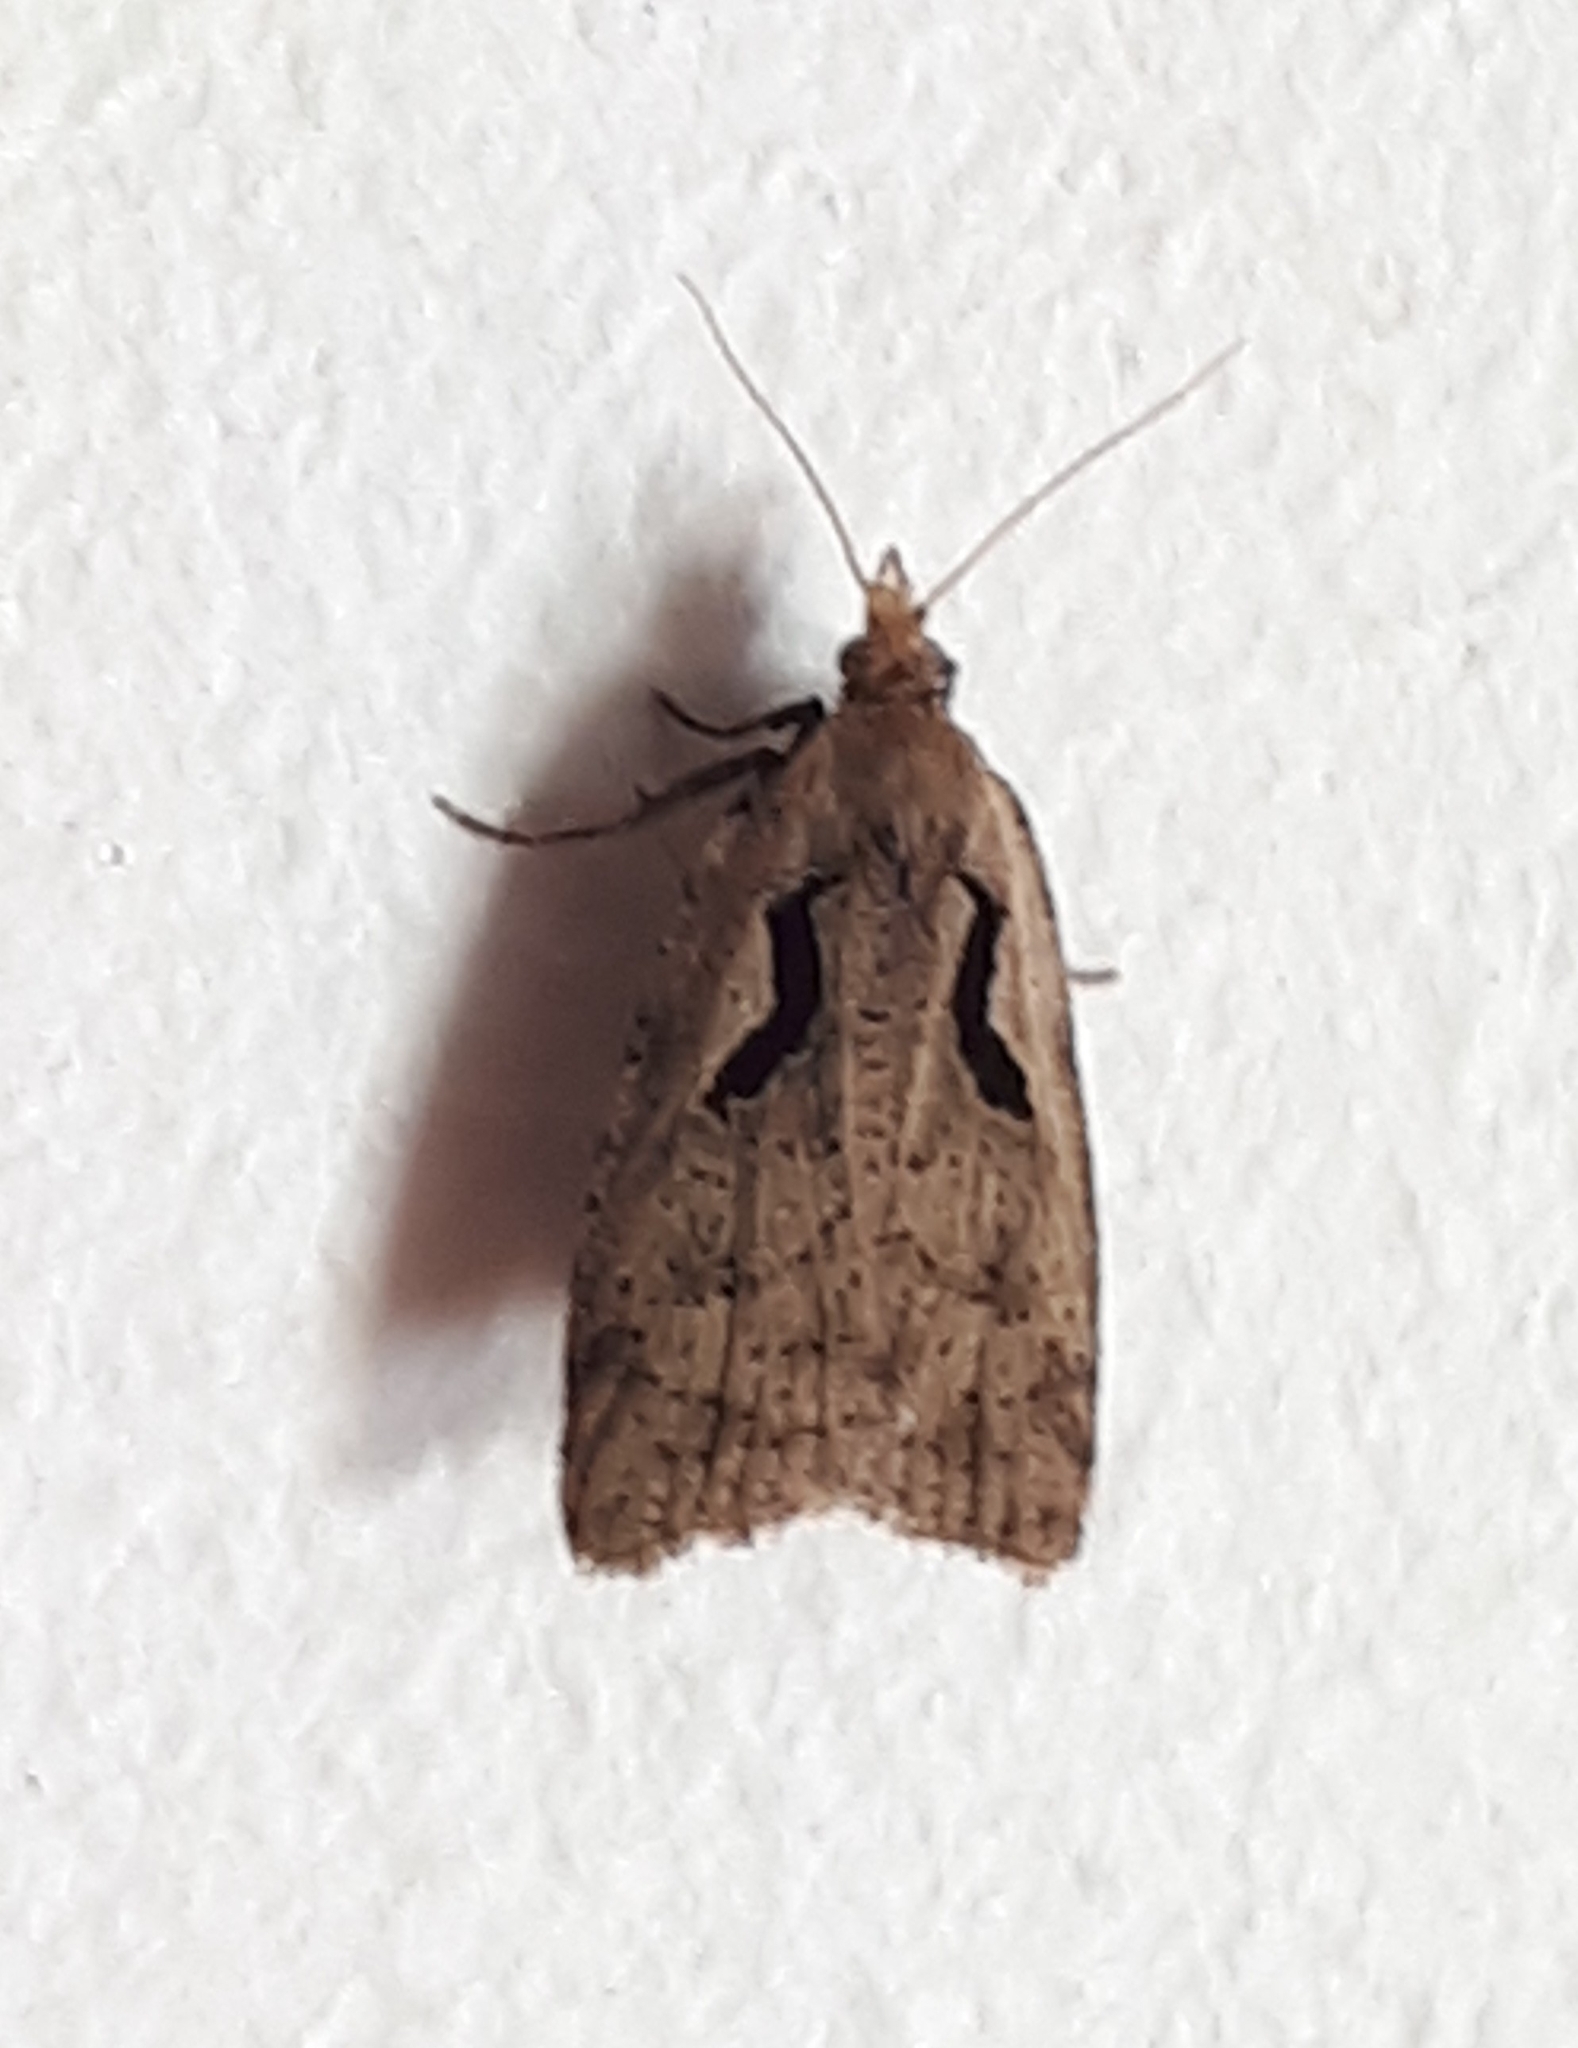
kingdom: Animalia
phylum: Arthropoda
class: Insecta
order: Lepidoptera
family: Tortricidae
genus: Cnephasia
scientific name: Cnephasia jactatana
